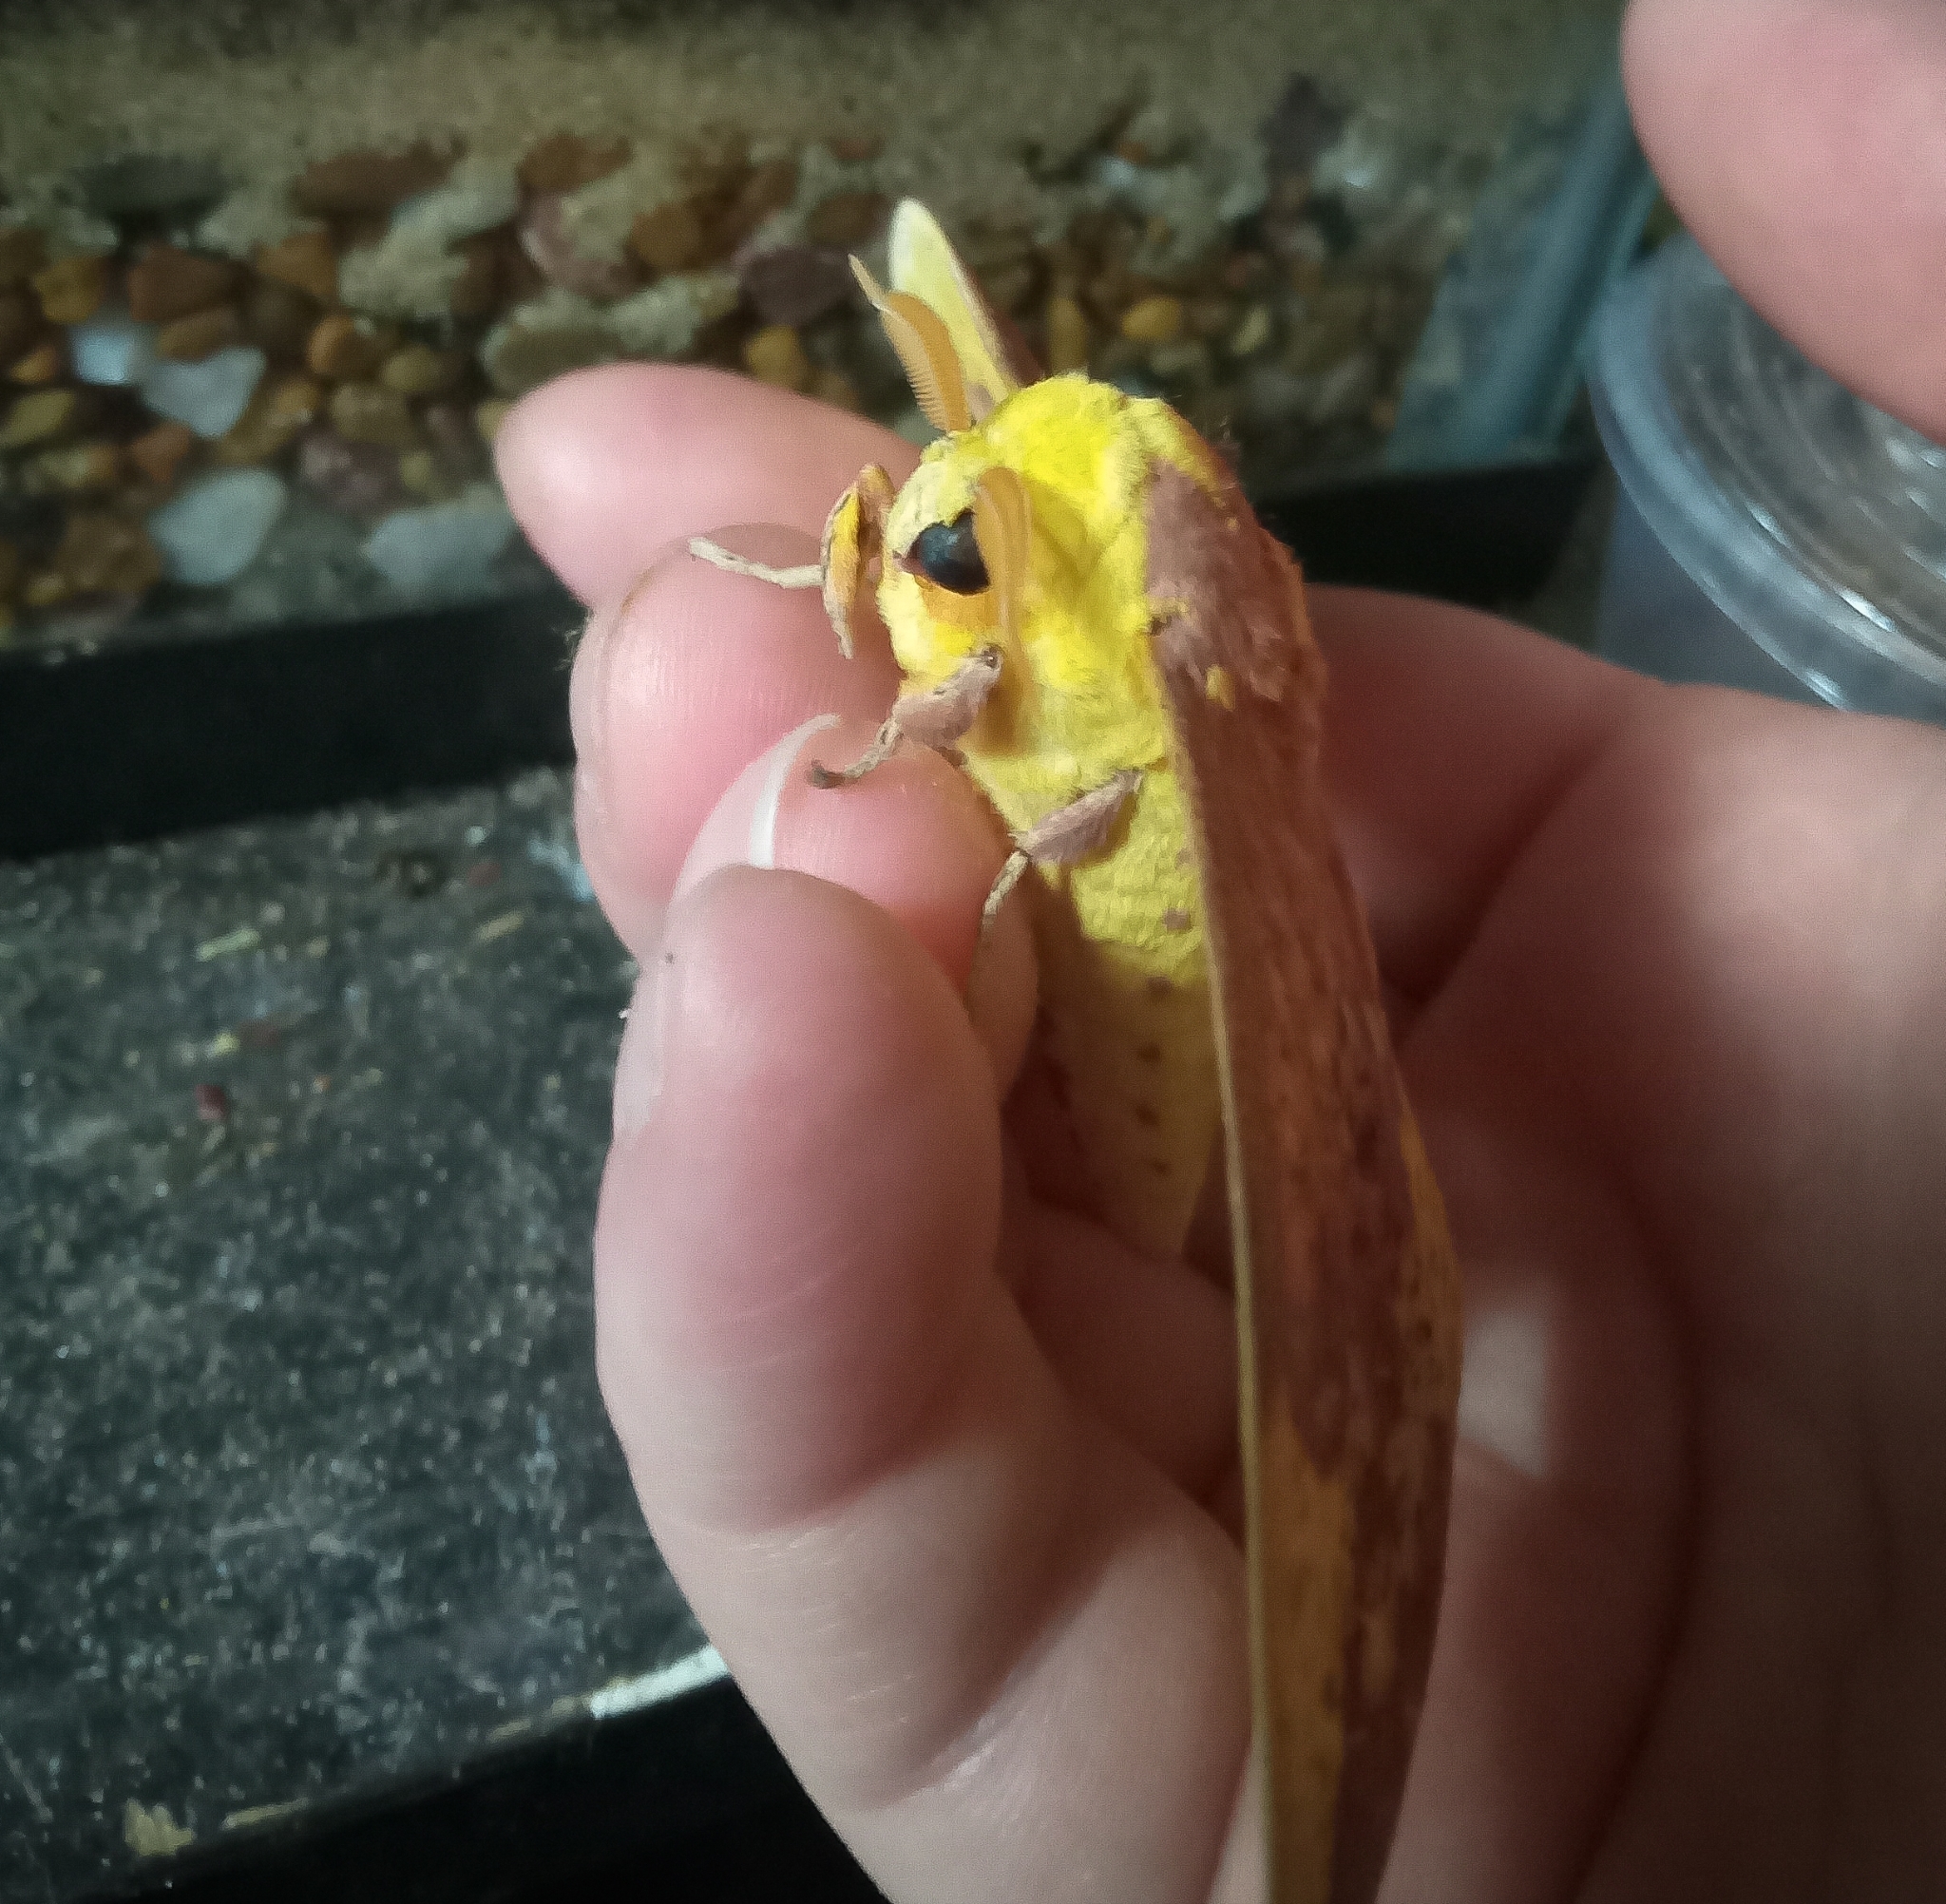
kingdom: Animalia
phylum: Arthropoda
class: Insecta
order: Lepidoptera
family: Saturniidae
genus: Eacles
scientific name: Eacles imperialis
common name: Imperial moth
